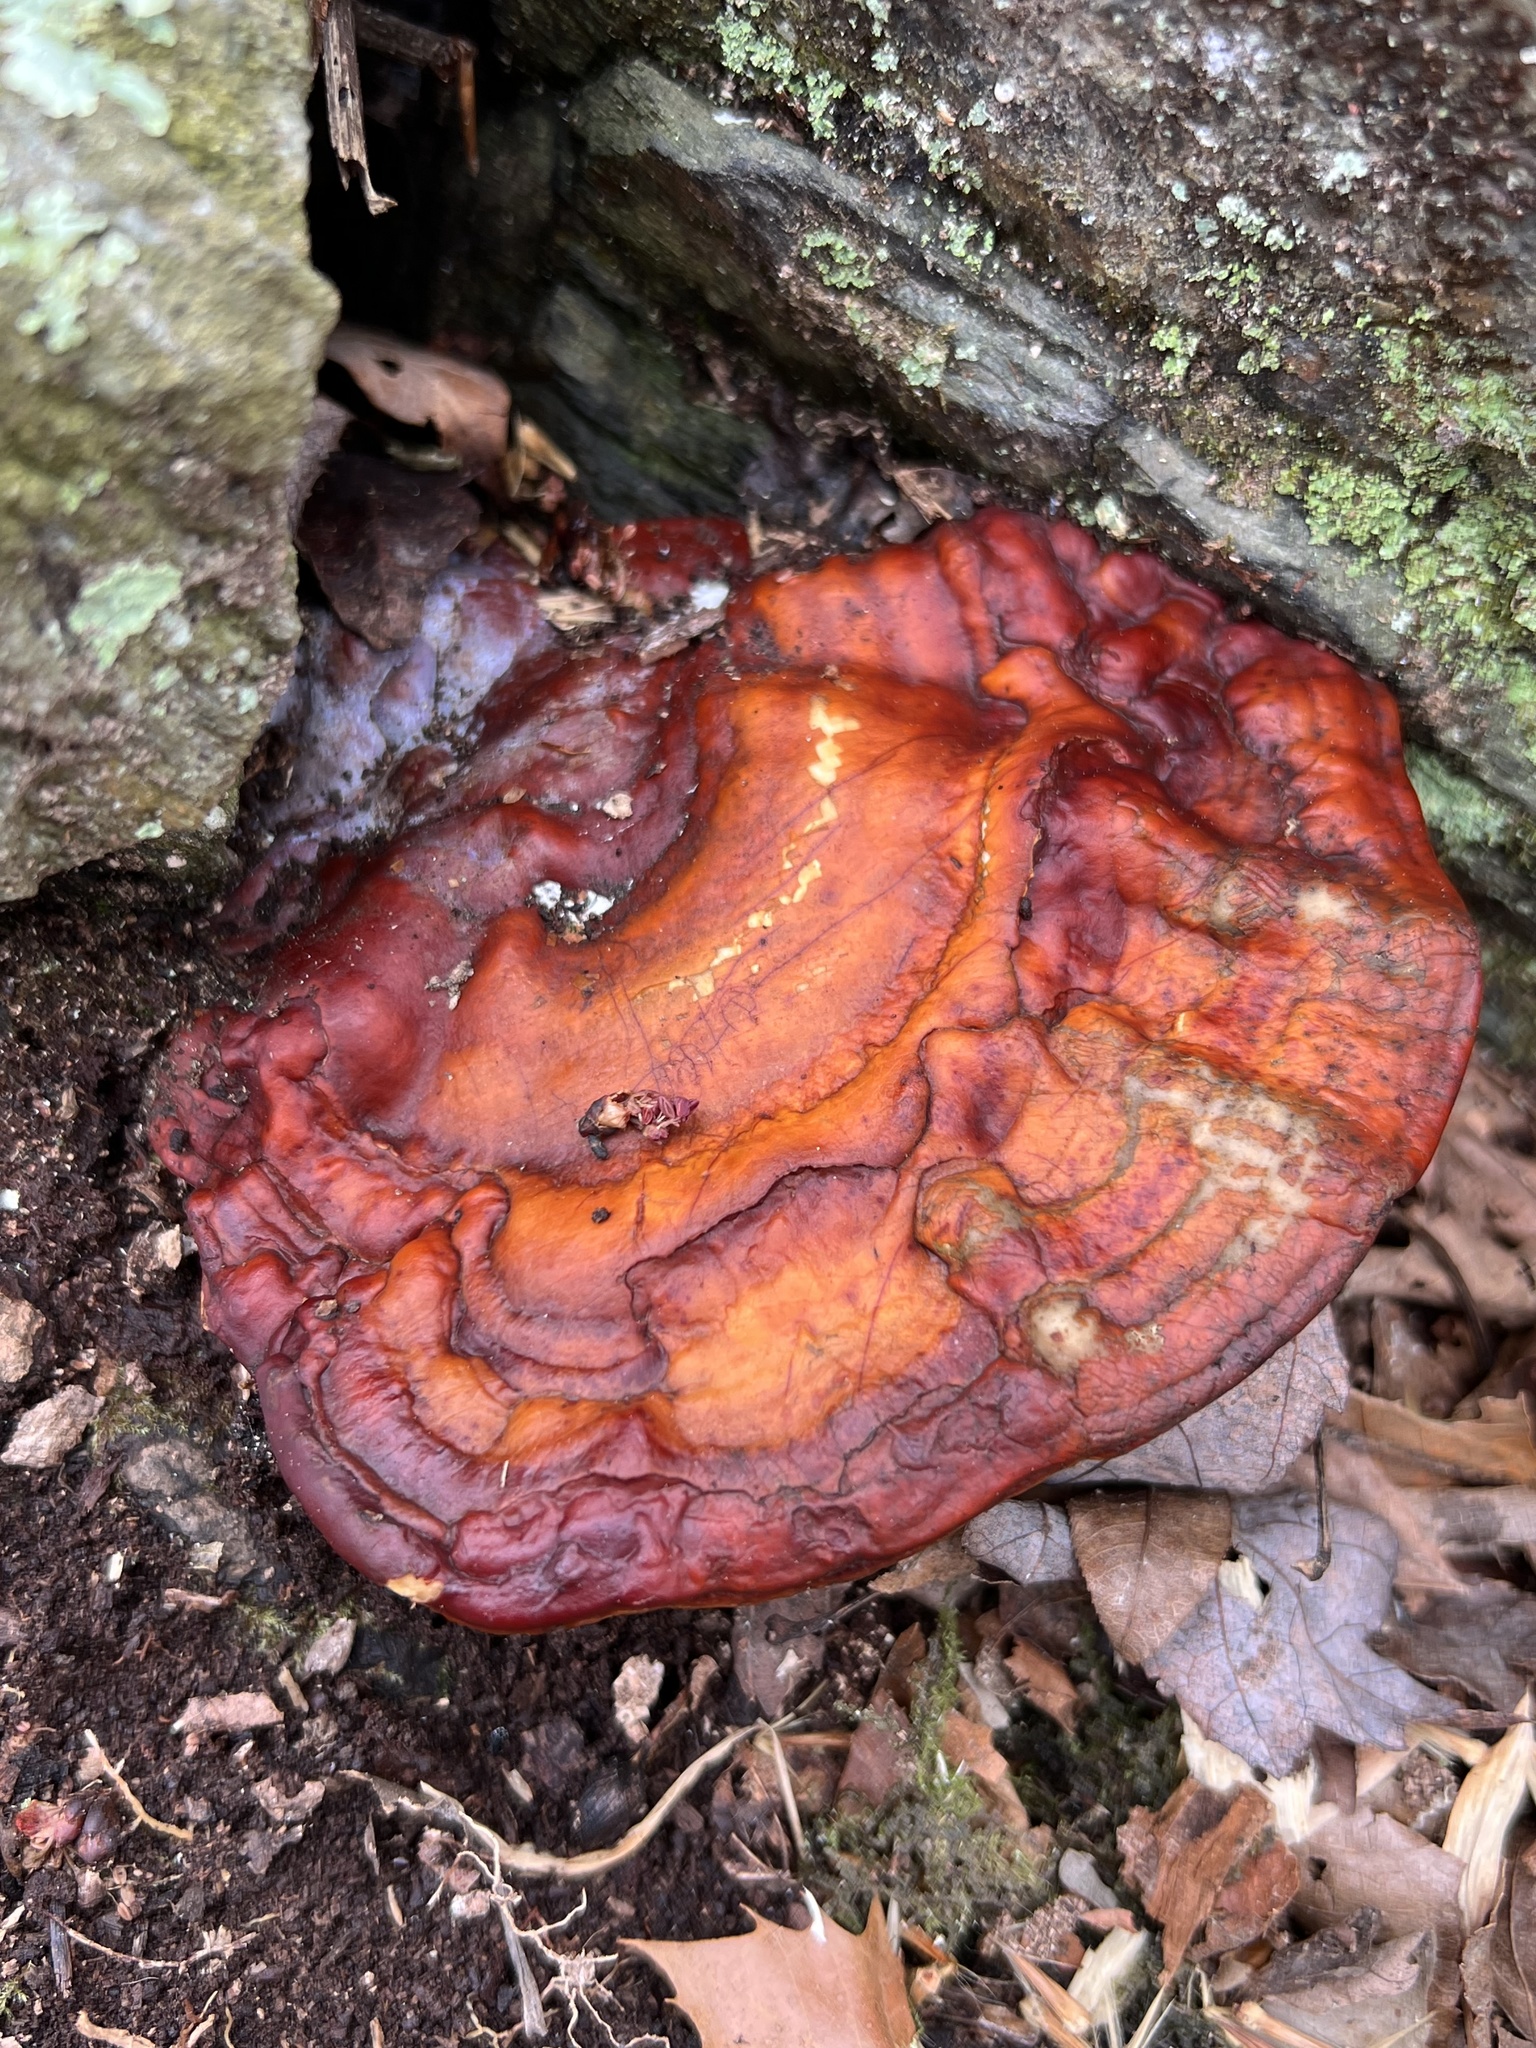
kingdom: Fungi
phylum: Basidiomycota
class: Agaricomycetes
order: Polyporales
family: Polyporaceae
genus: Ganoderma
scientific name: Ganoderma curtisii
